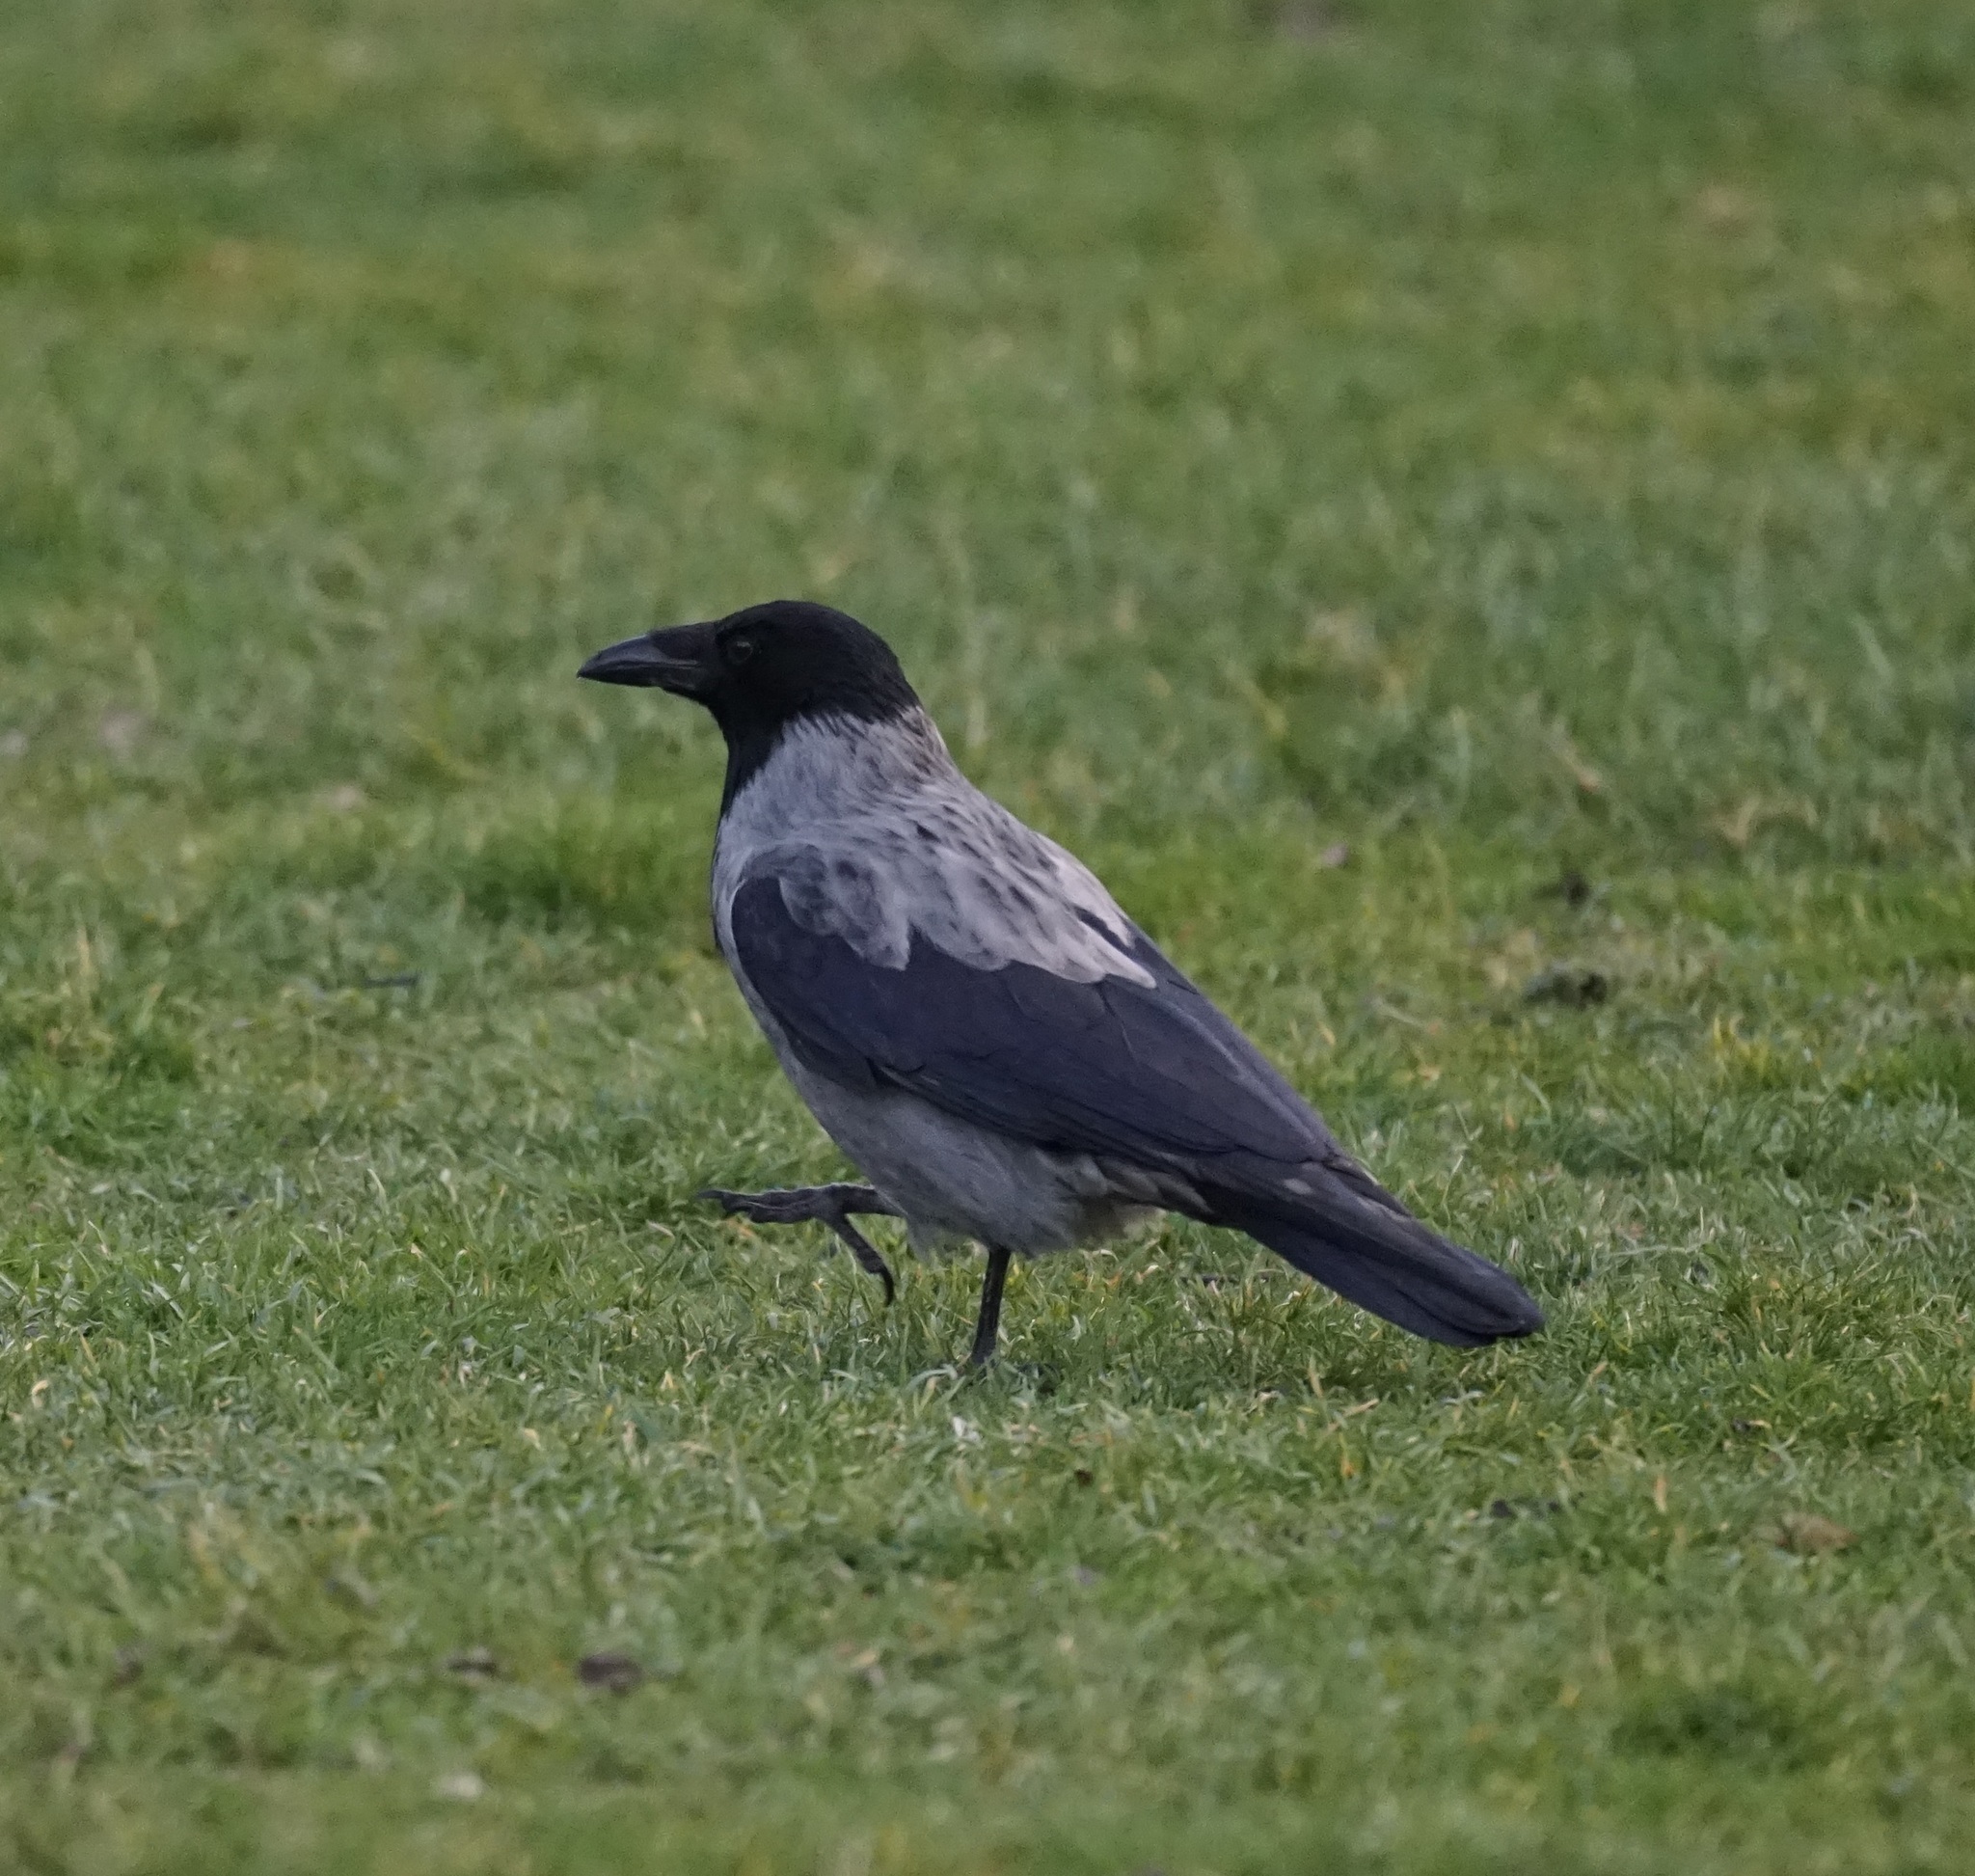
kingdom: Animalia
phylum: Chordata
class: Aves
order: Passeriformes
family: Corvidae
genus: Corvus
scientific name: Corvus cornix
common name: Hooded crow
